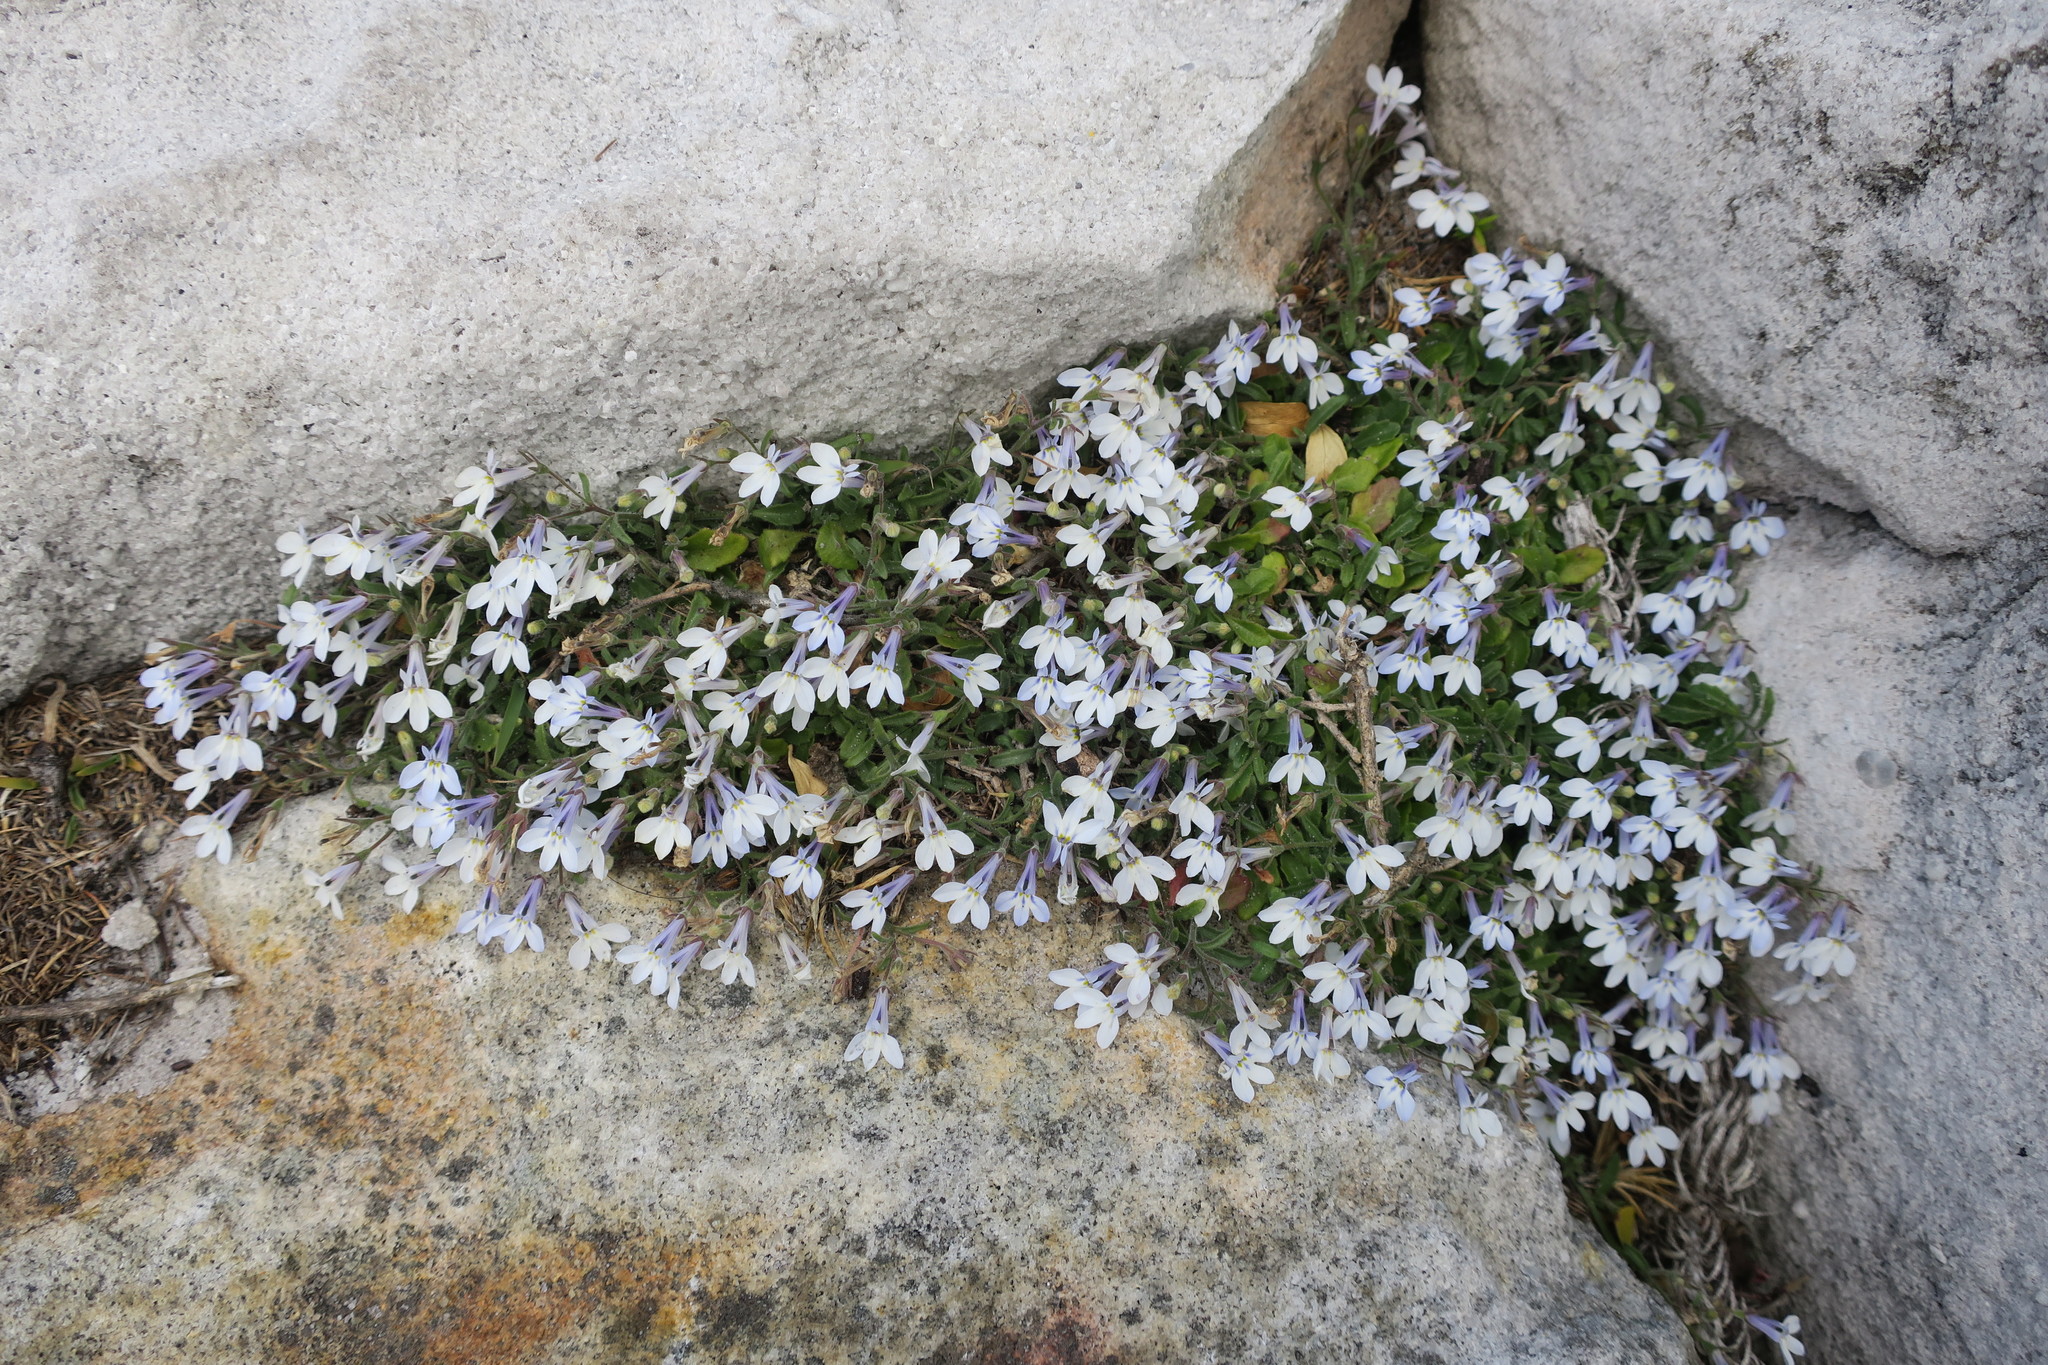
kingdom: Plantae
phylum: Tracheophyta
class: Magnoliopsida
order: Asterales
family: Campanulaceae
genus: Lobelia
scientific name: Lobelia boivinii
